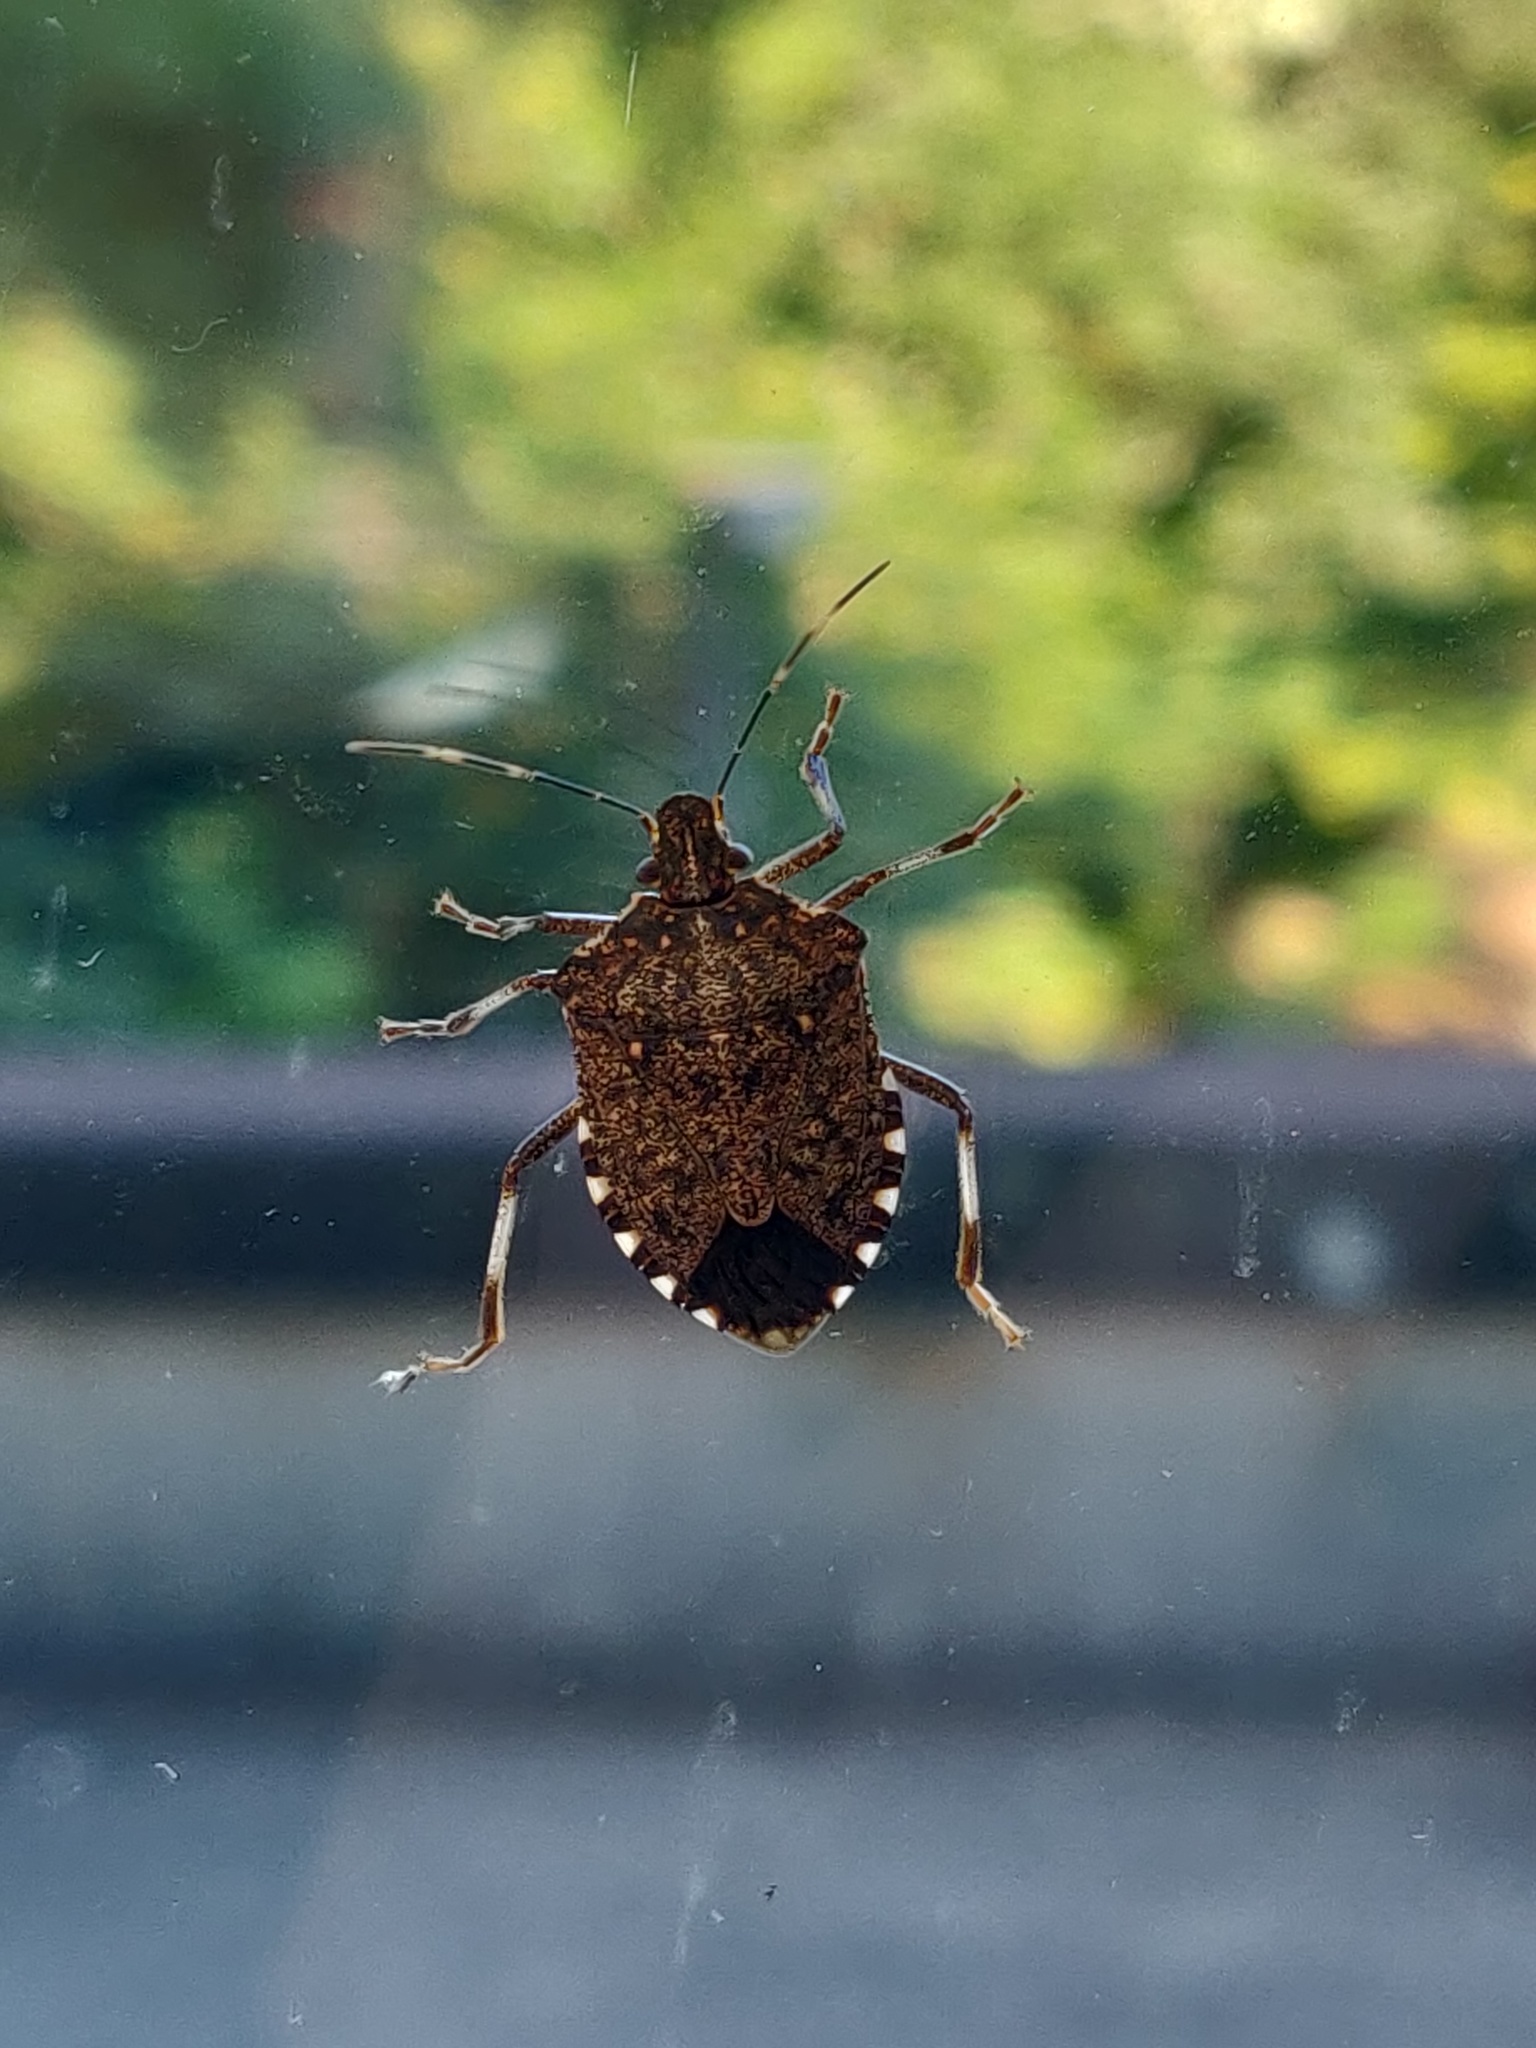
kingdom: Animalia
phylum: Arthropoda
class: Insecta
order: Hemiptera
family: Pentatomidae
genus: Halyomorpha
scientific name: Halyomorpha halys
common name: Brown marmorated stink bug
